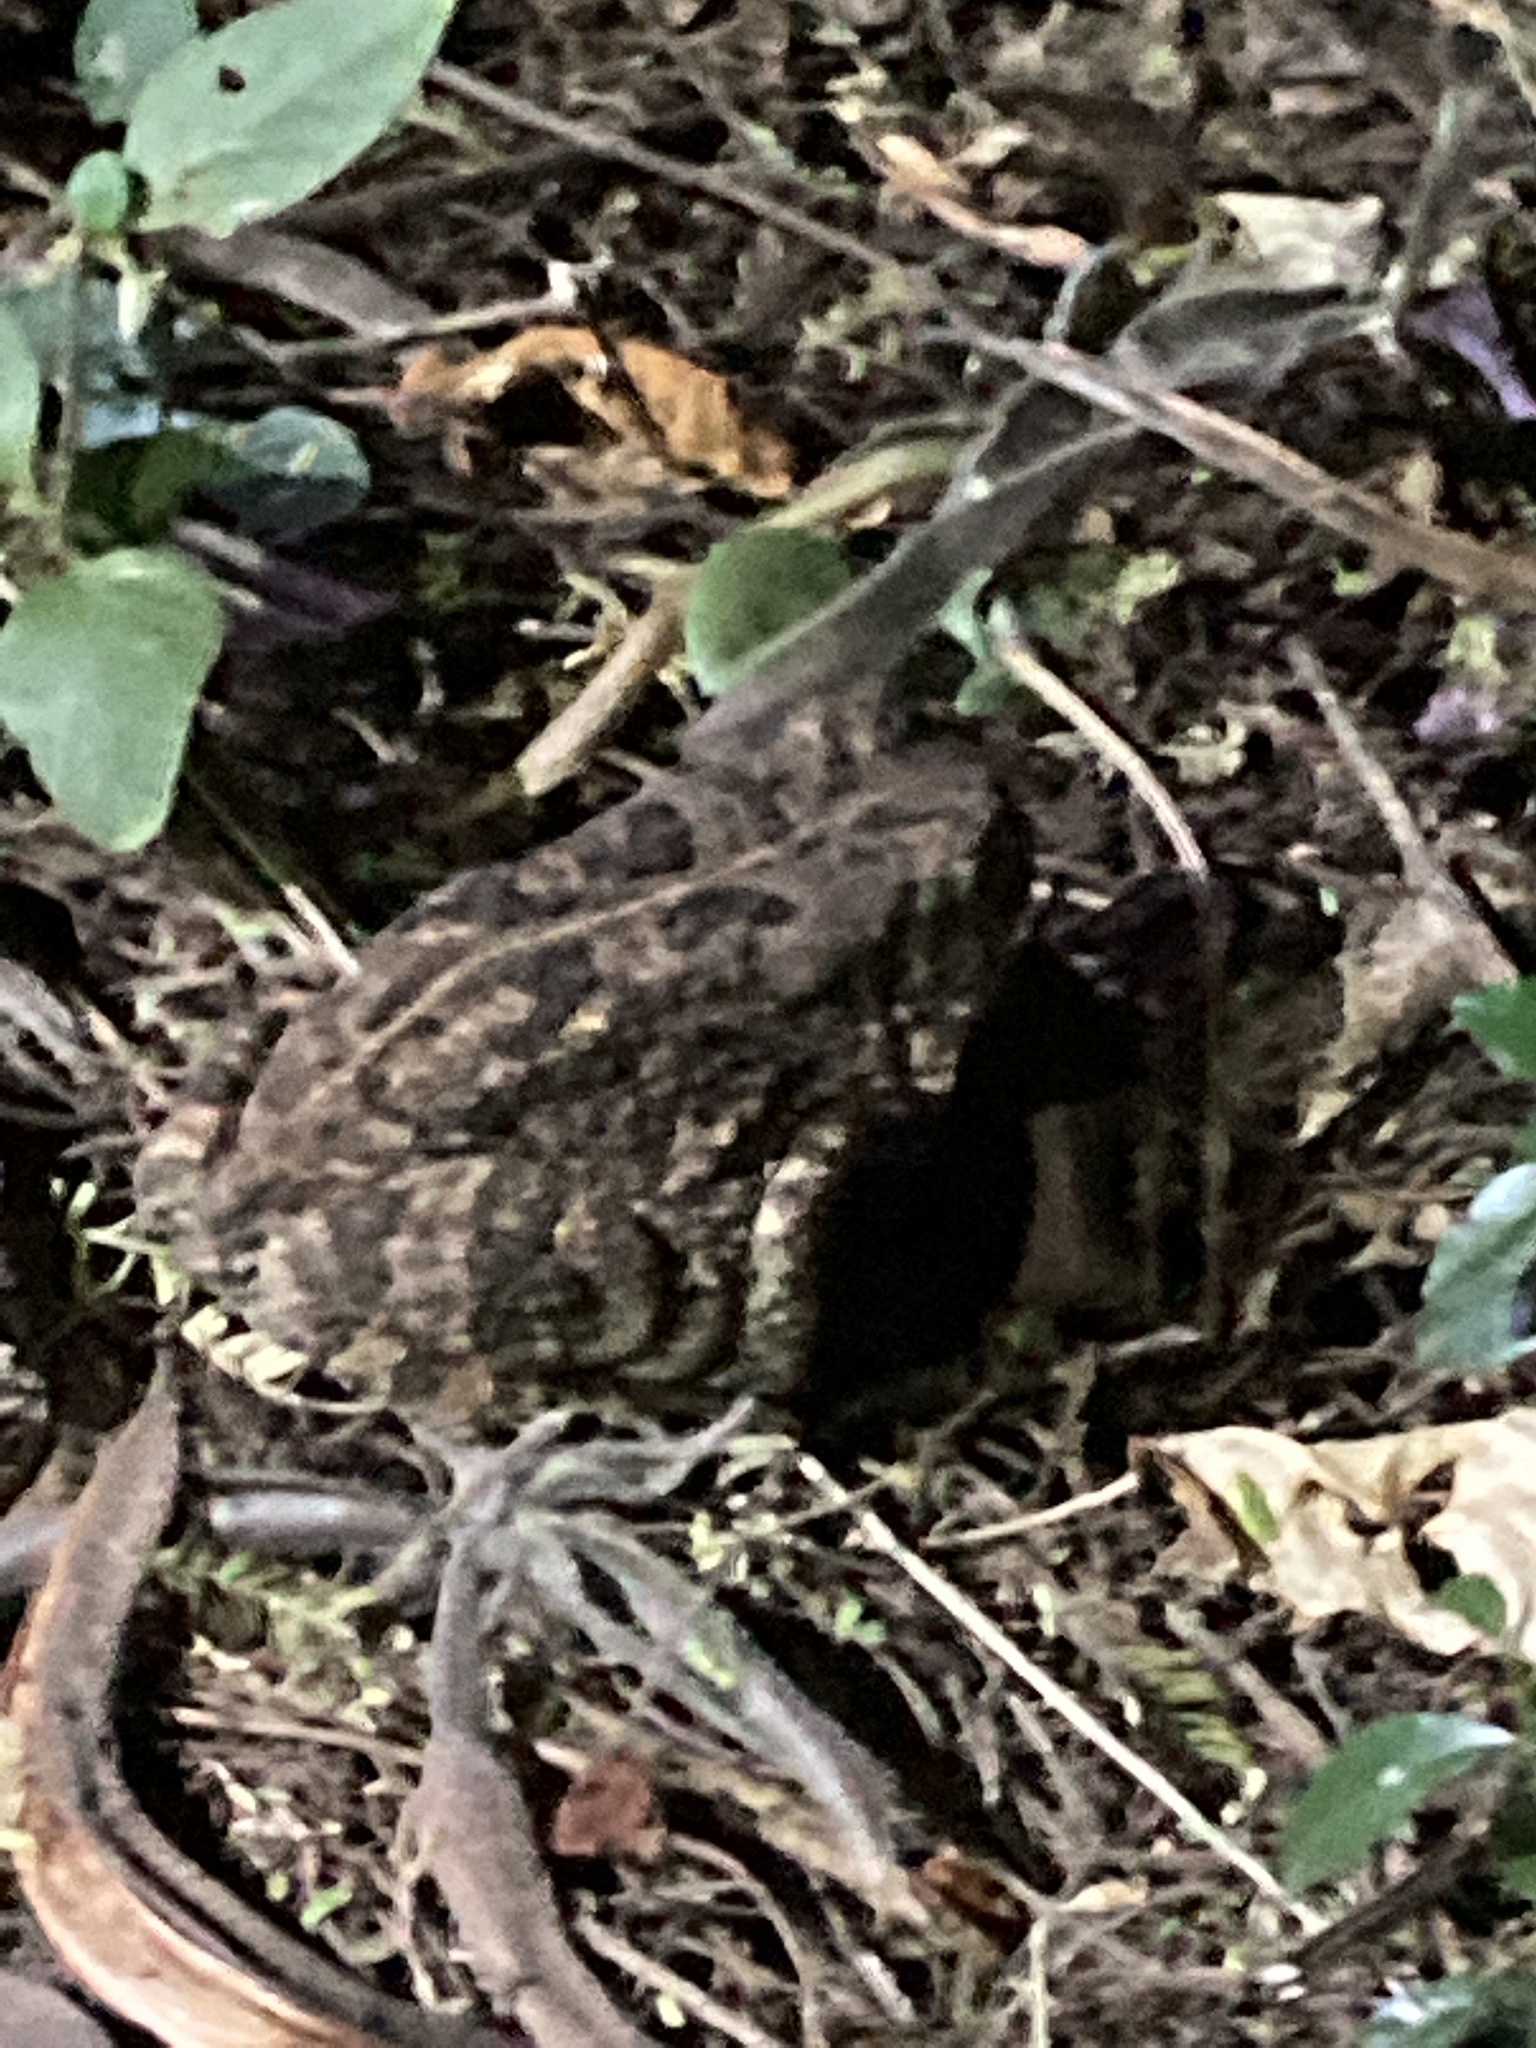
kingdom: Animalia
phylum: Chordata
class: Amphibia
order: Anura
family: Bufonidae
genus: Sclerophrys
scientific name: Sclerophrys gutturalis
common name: African common toad
